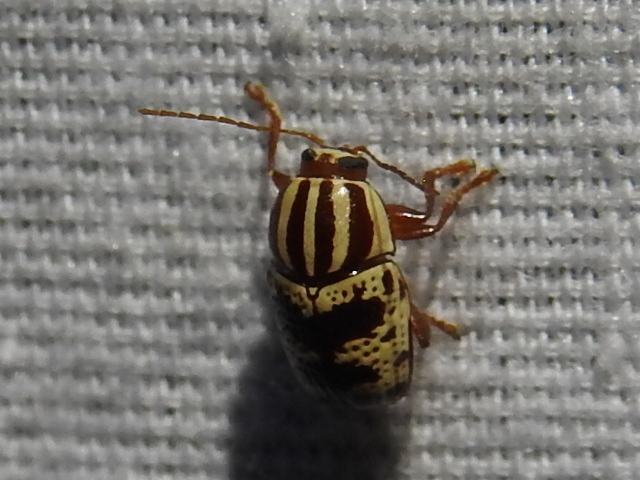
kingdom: Animalia
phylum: Arthropoda
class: Insecta
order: Coleoptera
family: Chrysomelidae
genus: Cryptocephalus
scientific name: Cryptocephalus leucomelas
